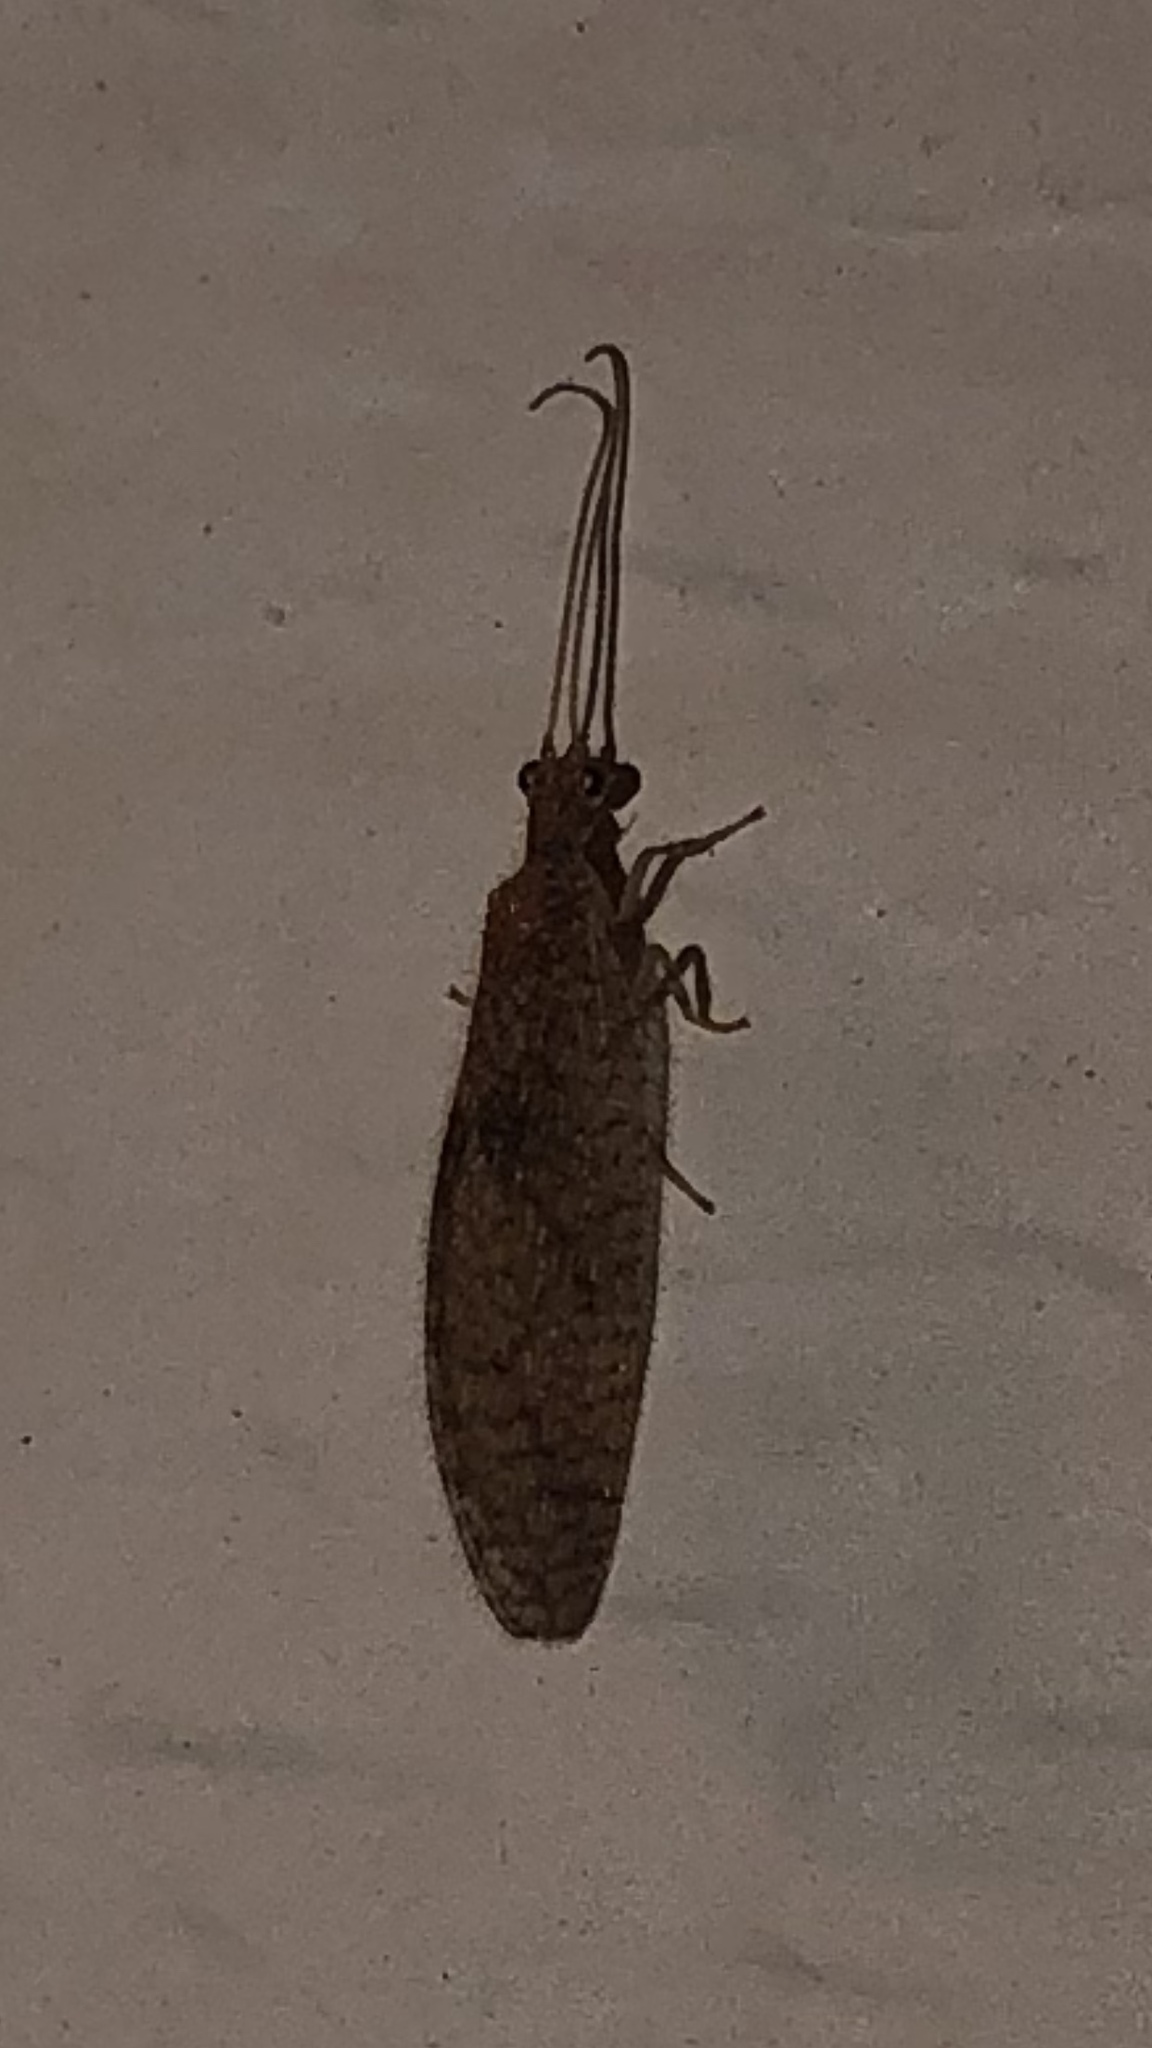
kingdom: Animalia
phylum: Arthropoda
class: Insecta
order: Neuroptera
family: Hemerobiidae
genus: Micromus
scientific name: Micromus posticus
